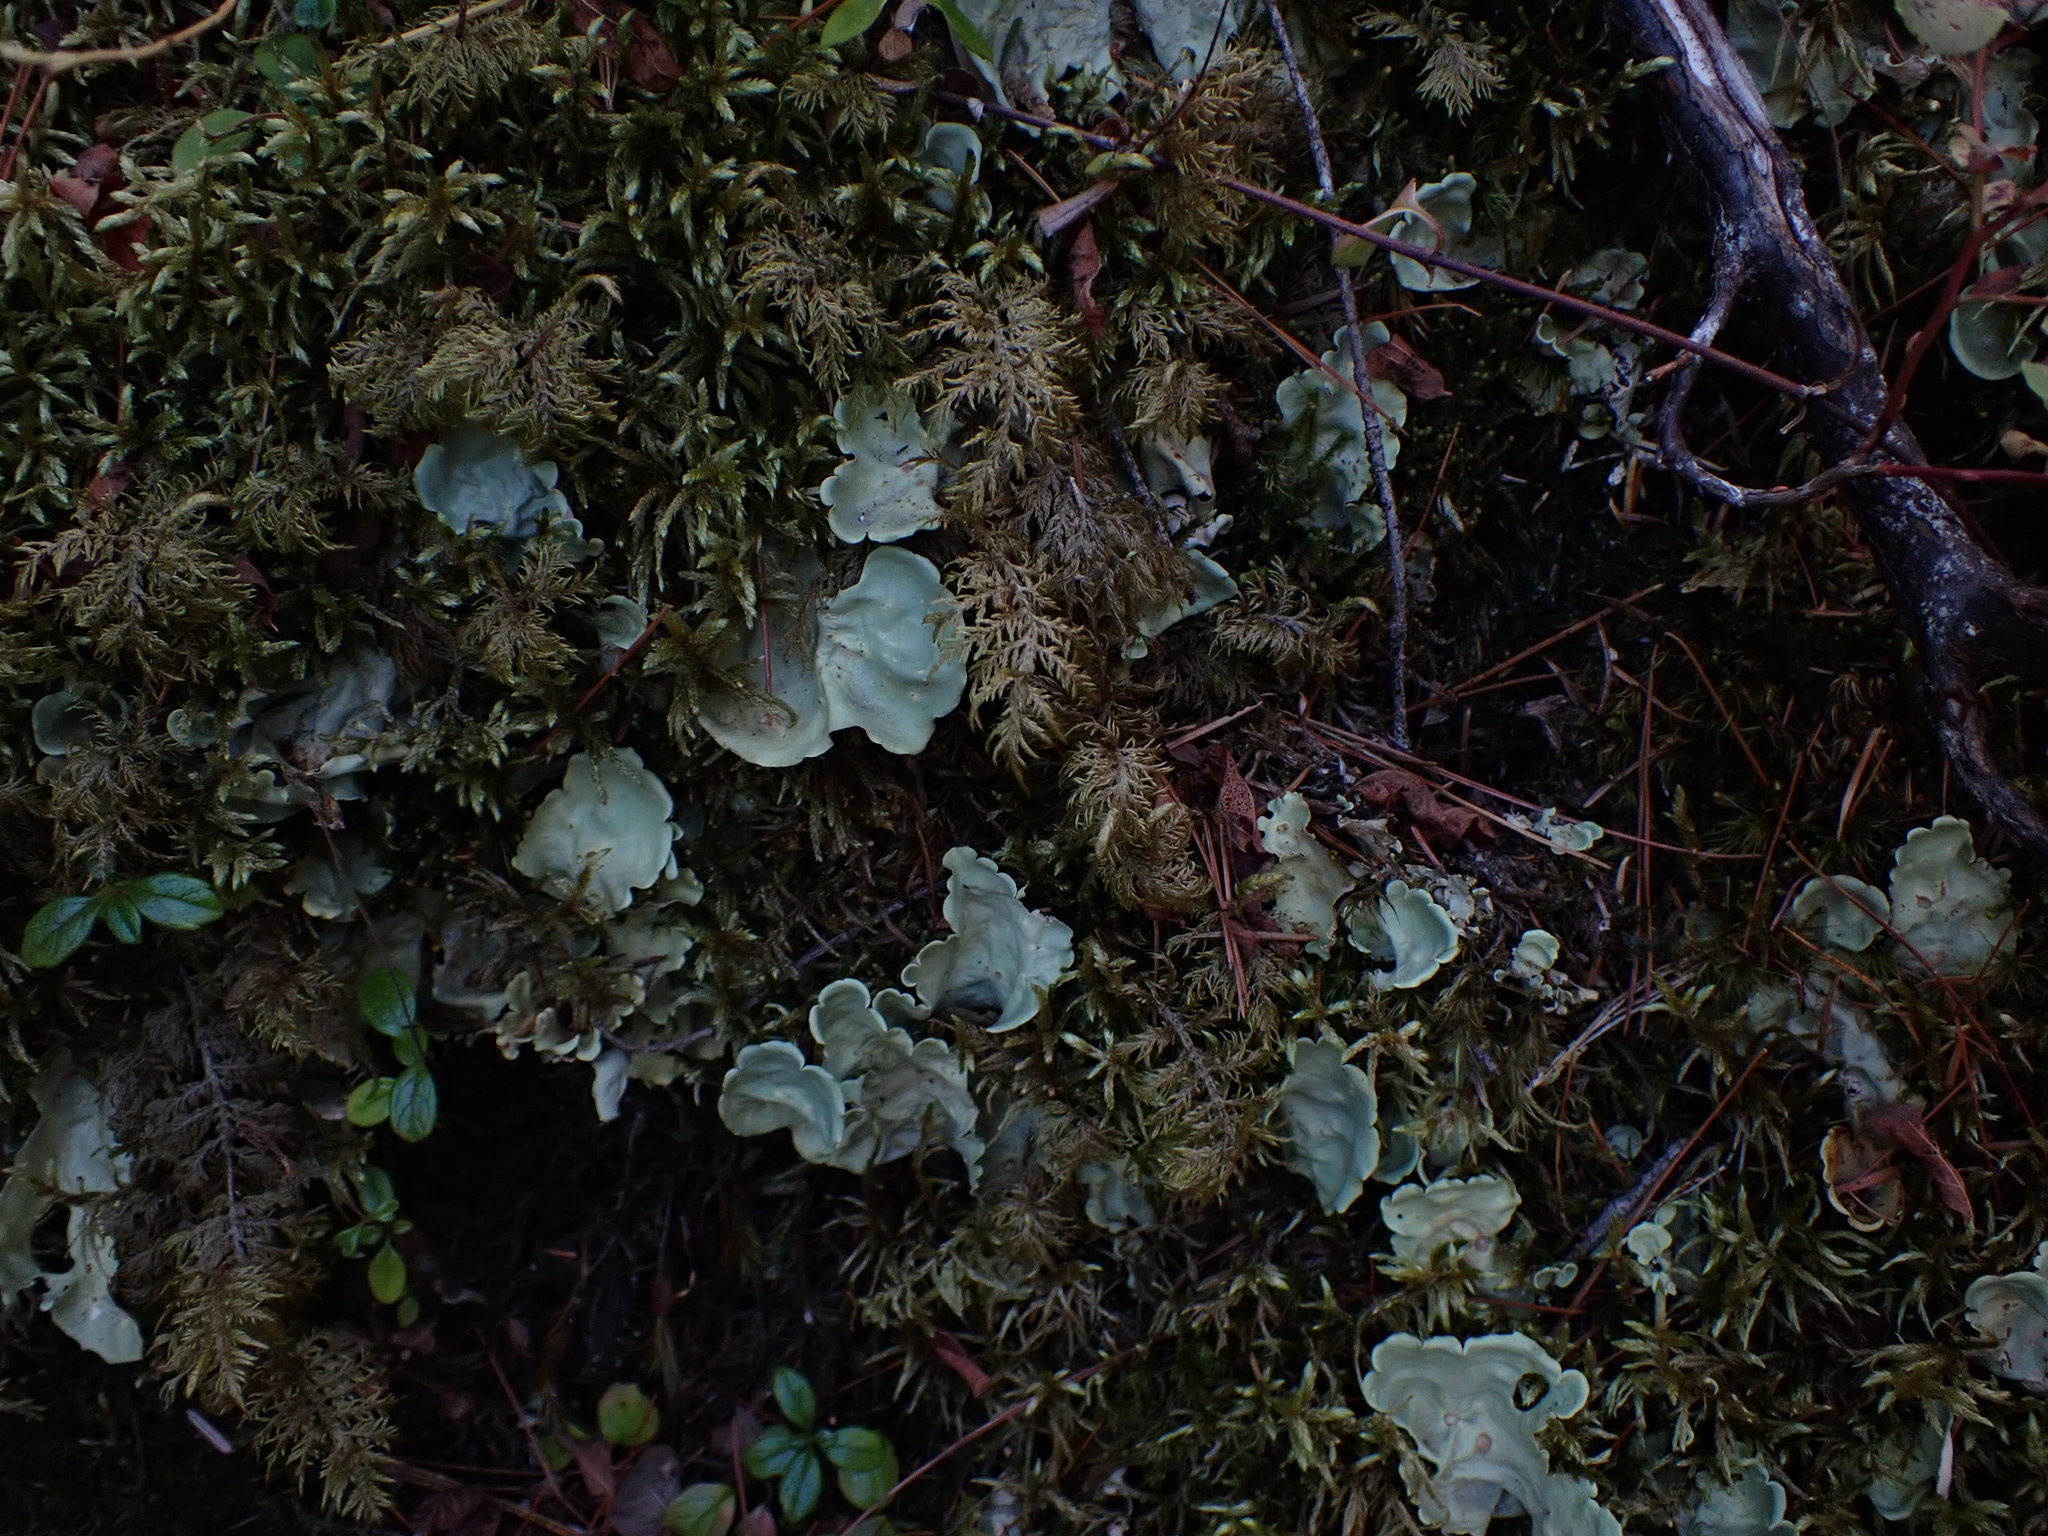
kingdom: Fungi
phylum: Ascomycota
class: Lecanoromycetes
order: Peltigerales
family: Nephromataceae
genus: Nephroma
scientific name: Nephroma arcticum
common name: Arctic kidney-lichen
